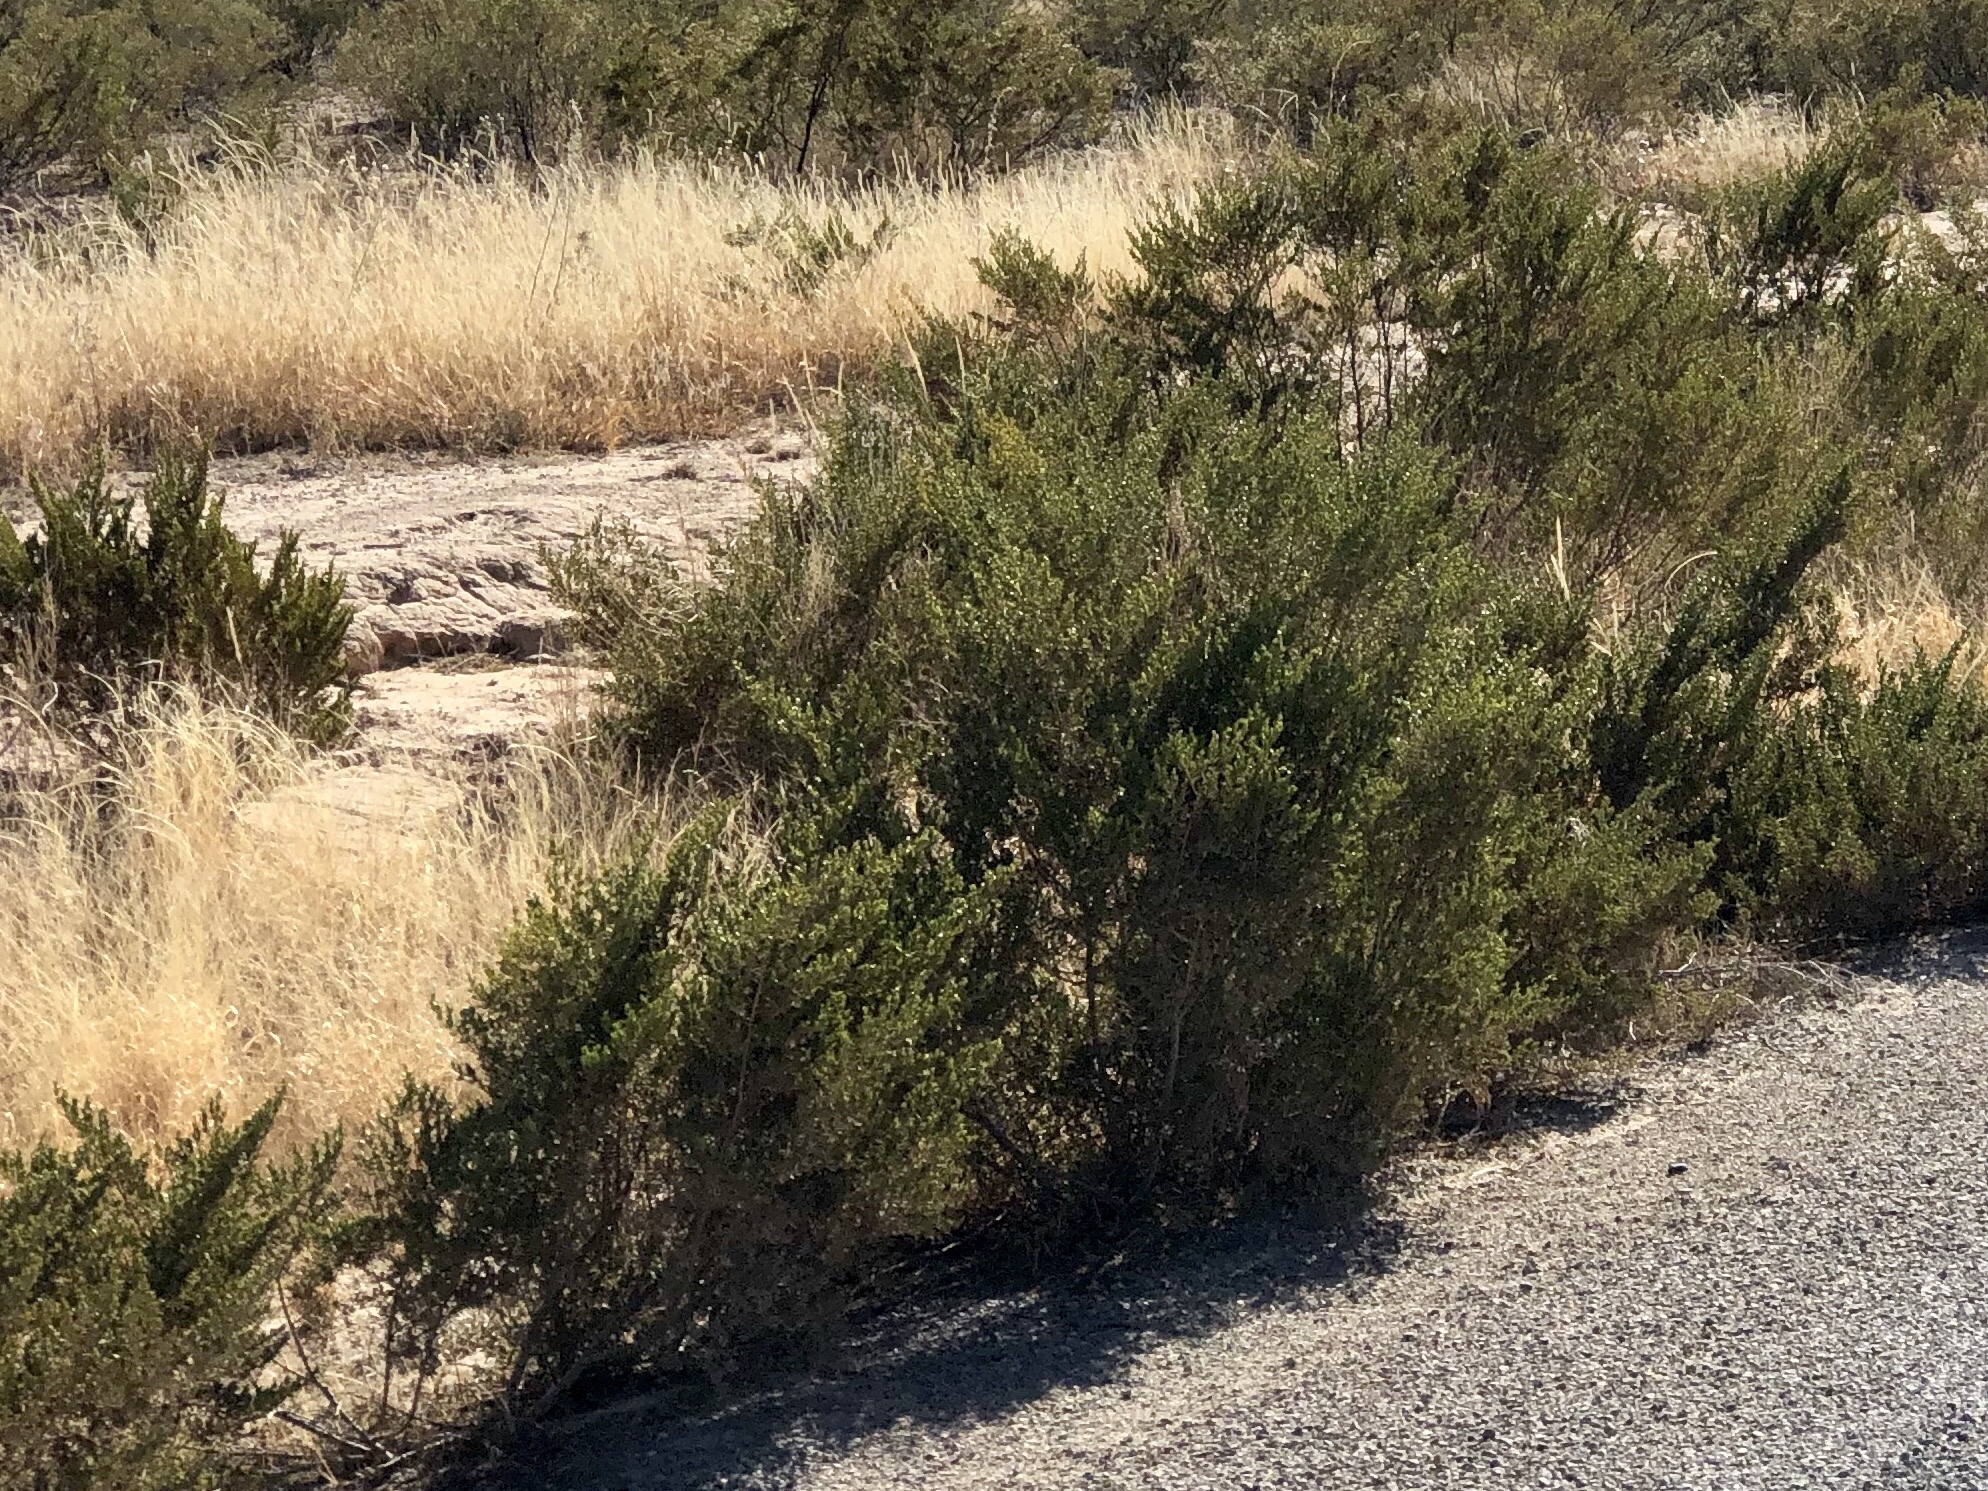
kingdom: Plantae
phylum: Tracheophyta
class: Magnoliopsida
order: Zygophyllales
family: Zygophyllaceae
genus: Larrea
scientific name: Larrea tridentata
